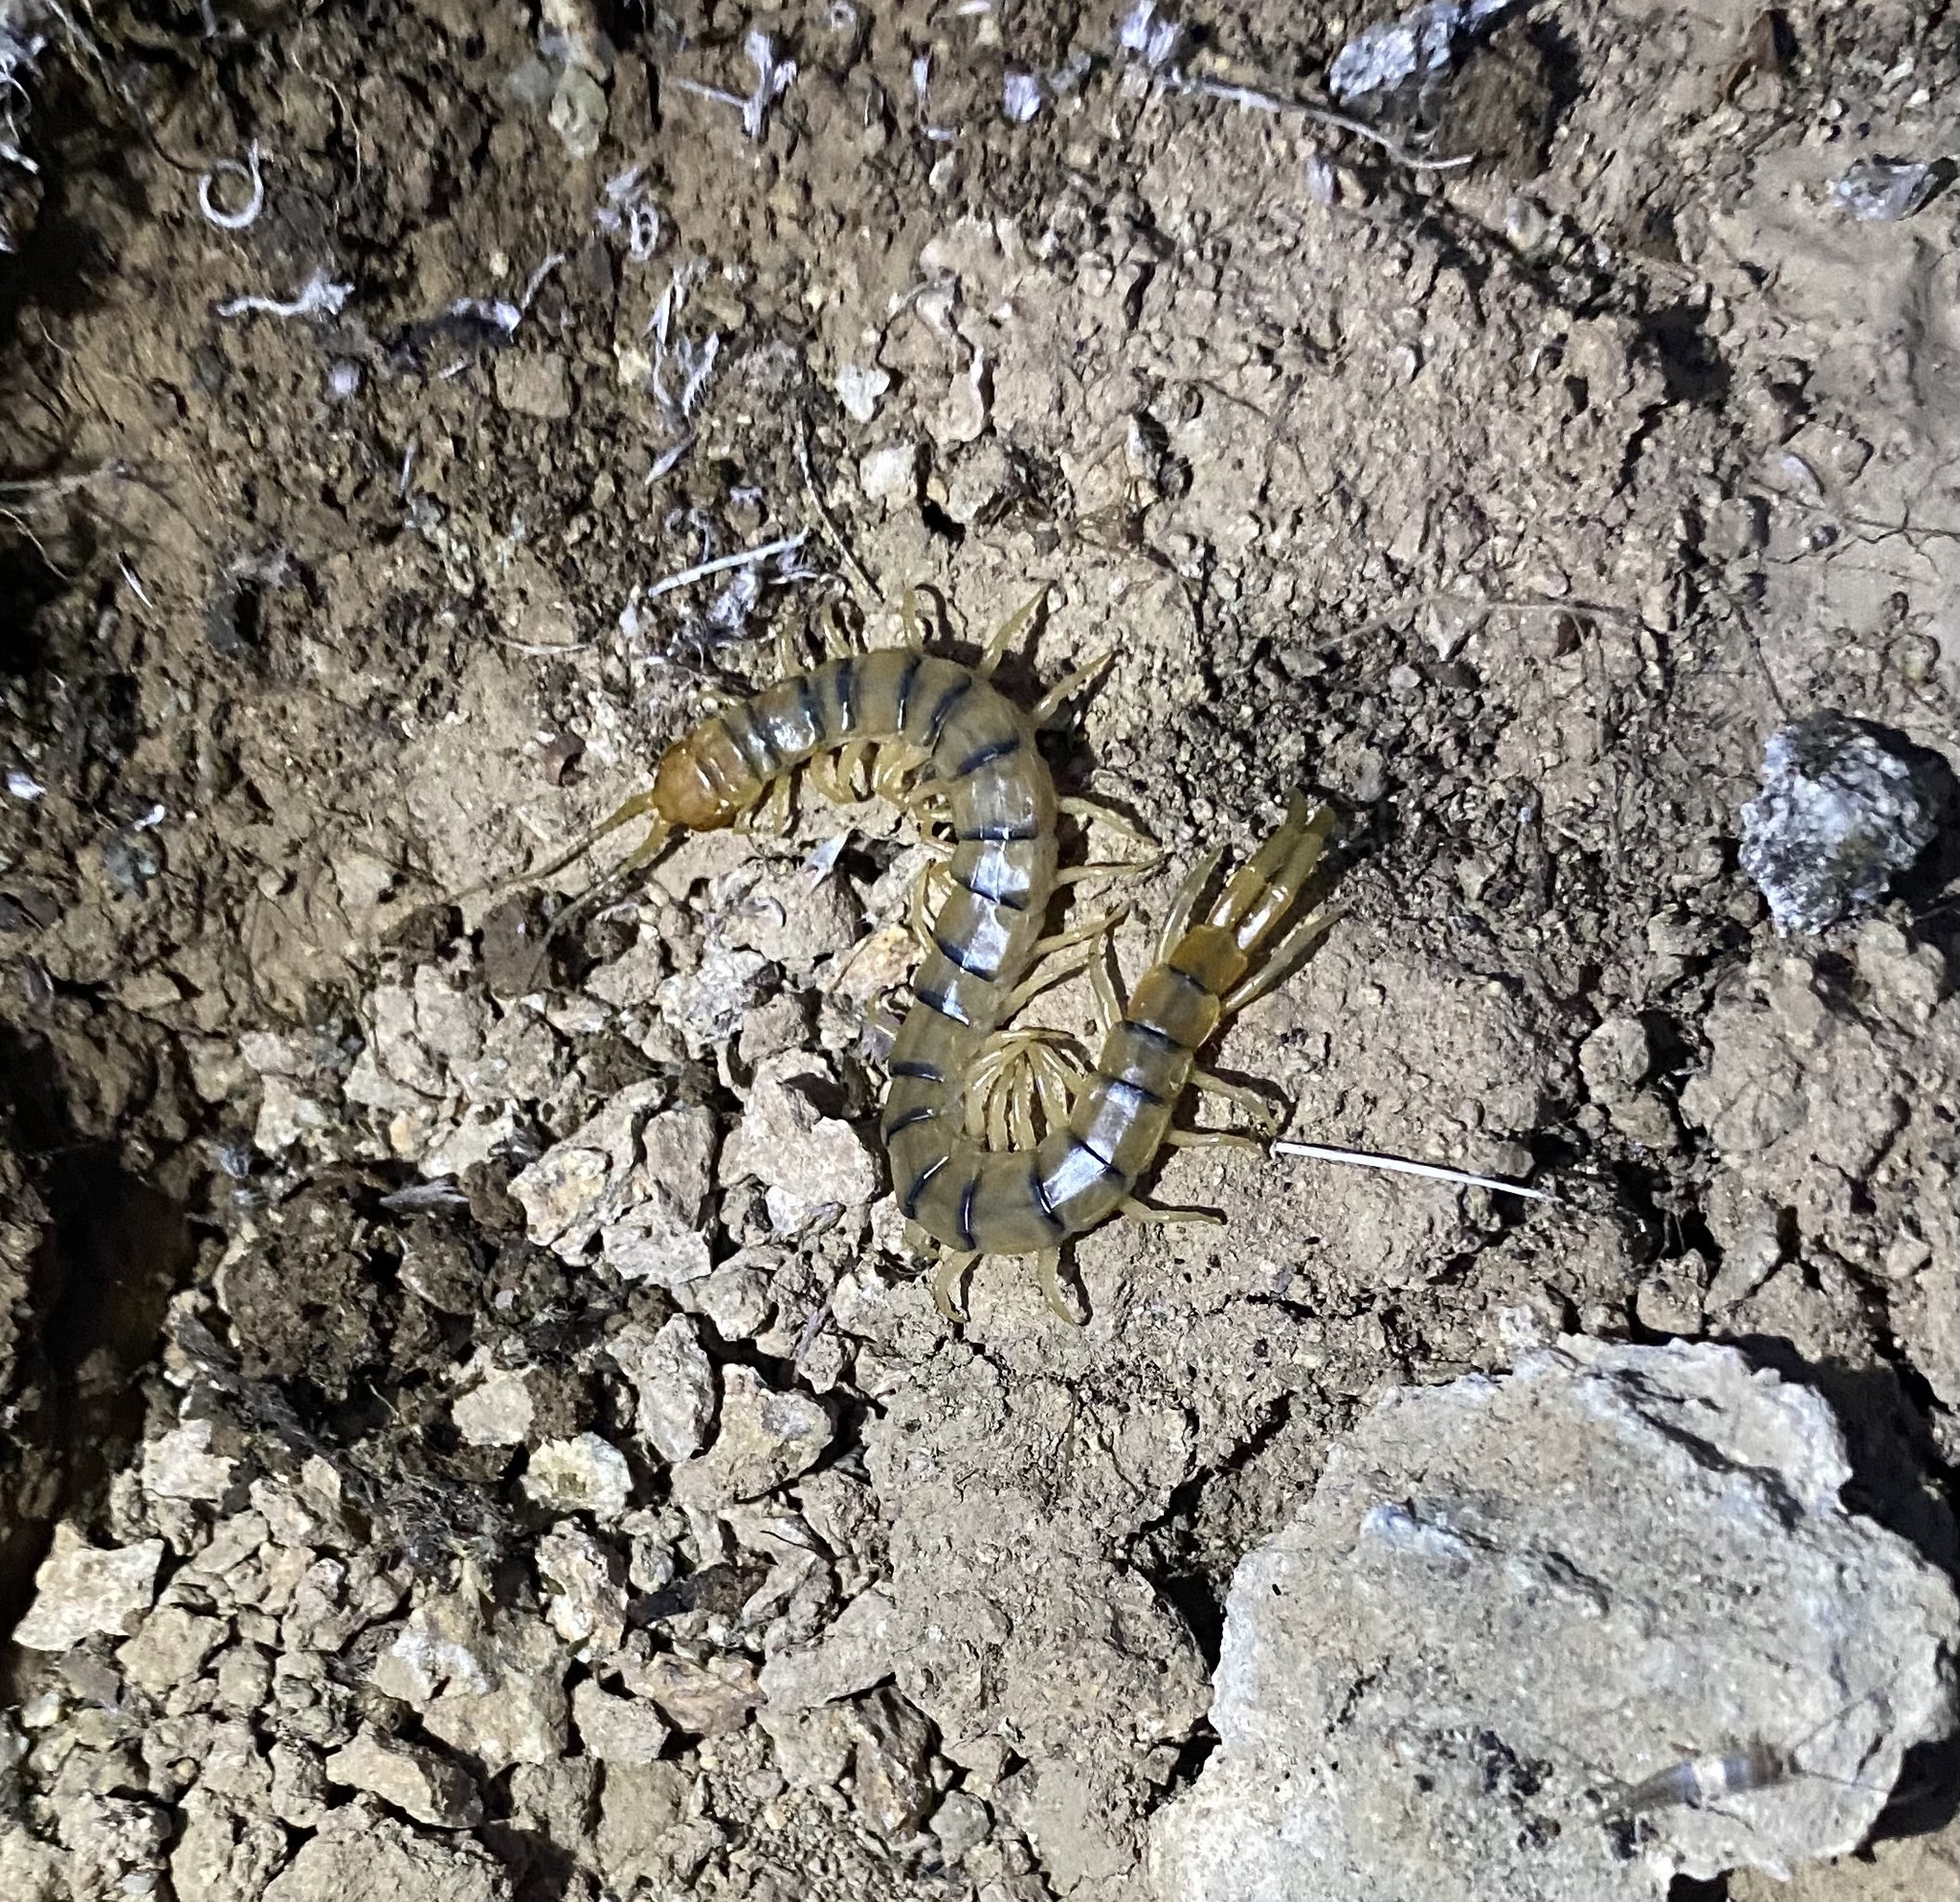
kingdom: Animalia
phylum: Arthropoda
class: Chilopoda
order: Scolopendromorpha
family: Scolopendridae
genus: Scolopendra
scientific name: Scolopendra polymorpha
